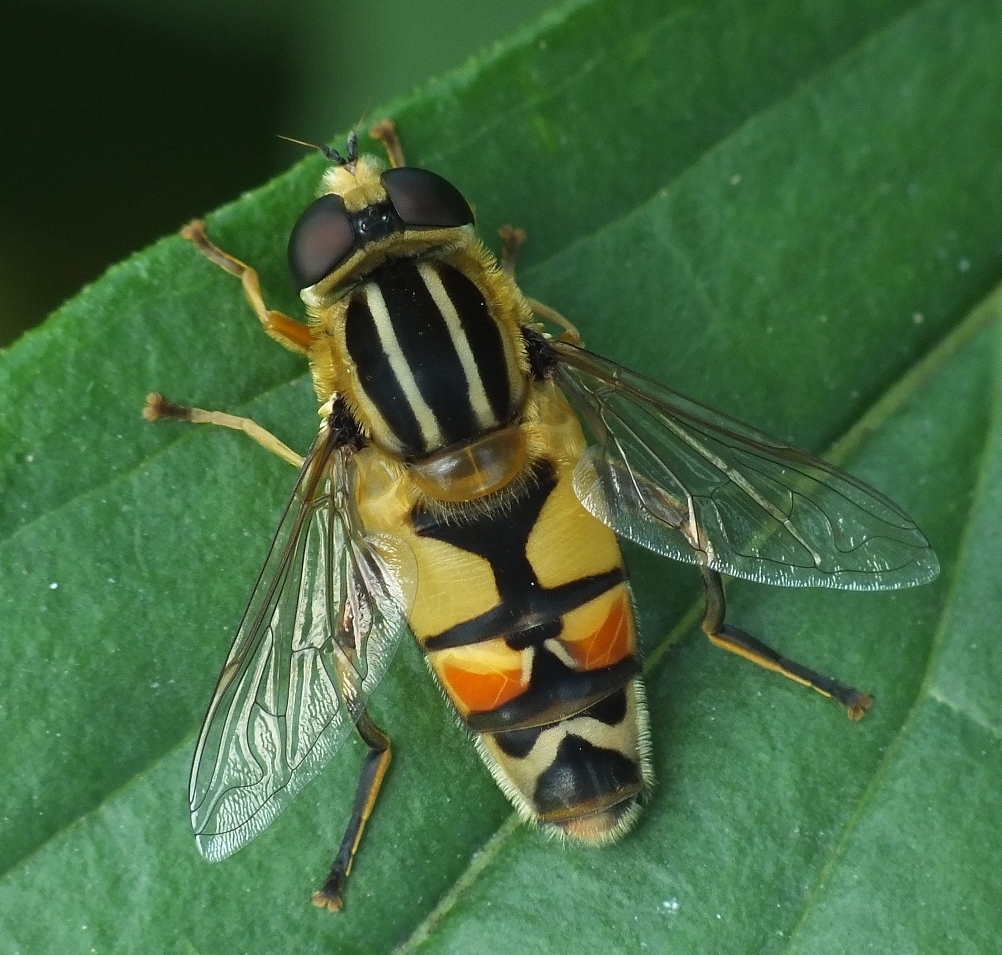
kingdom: Animalia
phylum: Arthropoda
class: Insecta
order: Diptera
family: Syrphidae
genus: Helophilus
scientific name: Helophilus trivittatus
